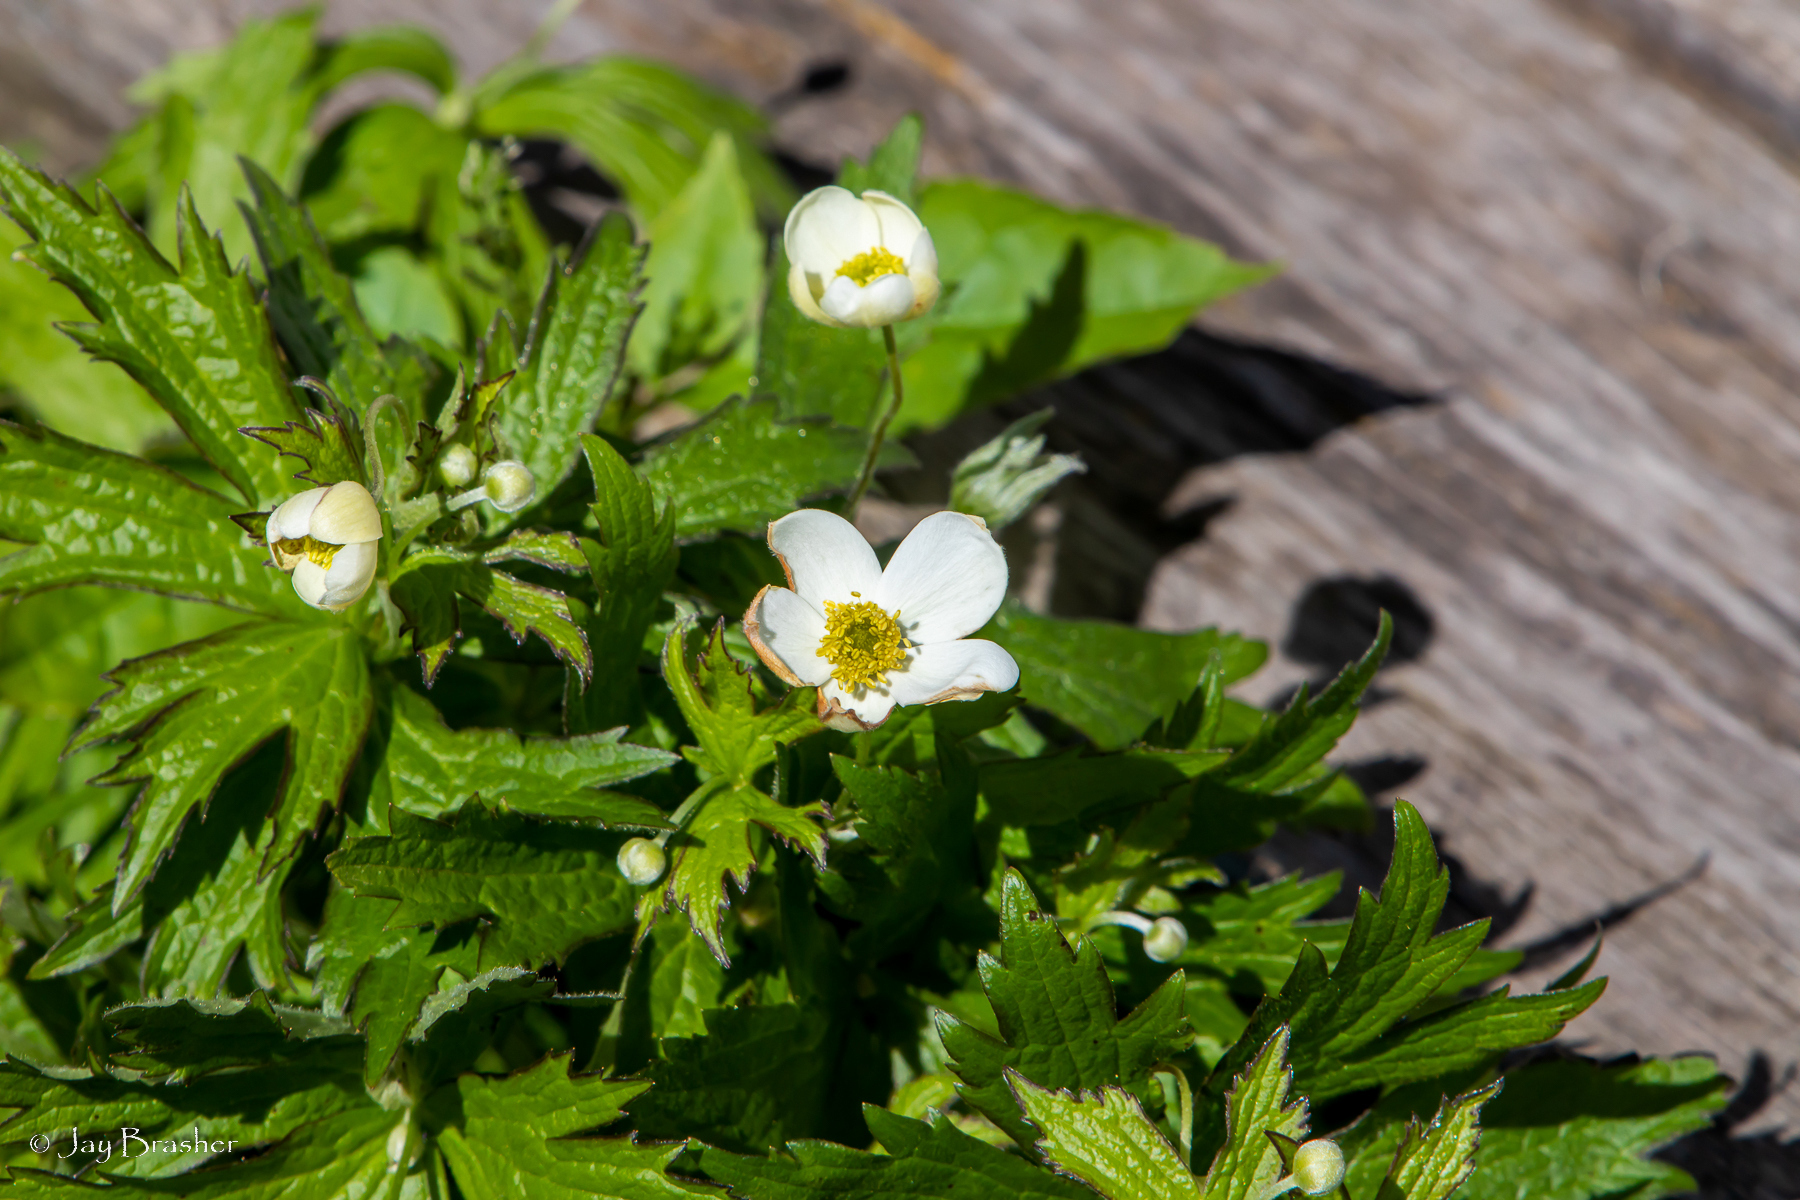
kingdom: Plantae
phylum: Tracheophyta
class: Magnoliopsida
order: Ranunculales
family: Ranunculaceae
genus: Anemonastrum
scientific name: Anemonastrum canadense
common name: Canada anemone
